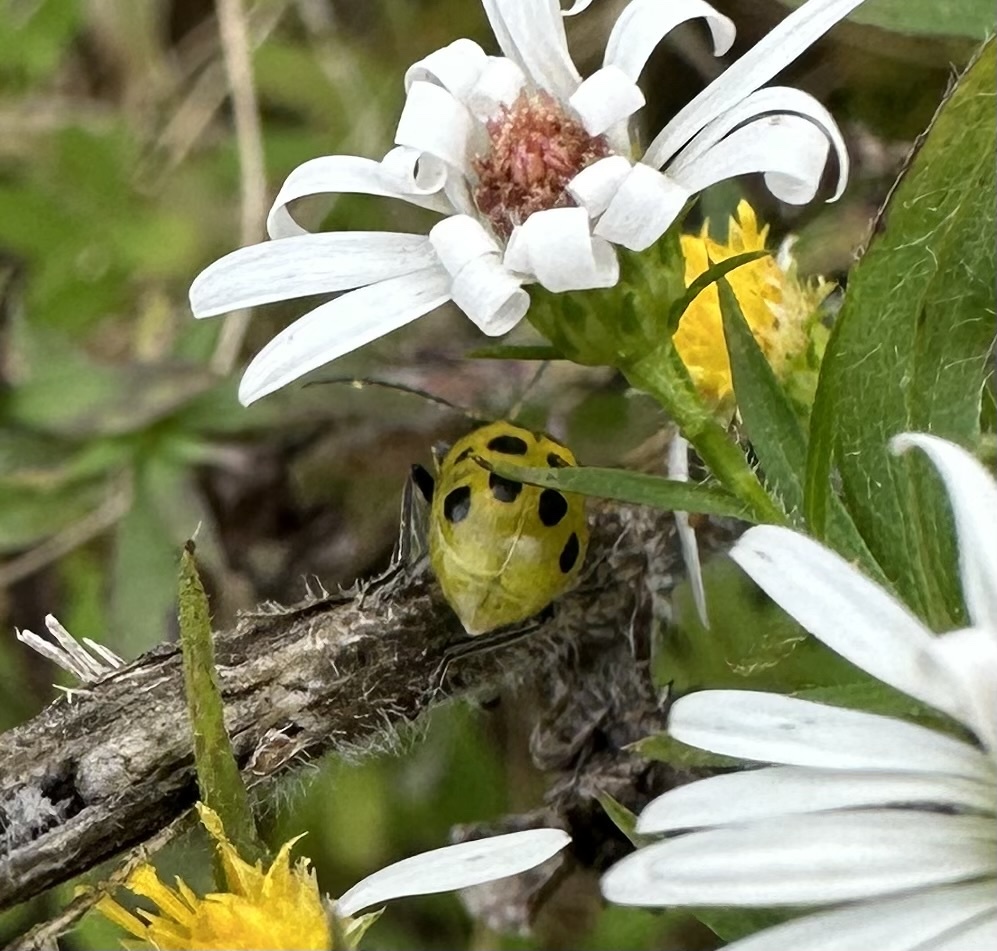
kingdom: Animalia
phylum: Arthropoda
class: Insecta
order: Coleoptera
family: Chrysomelidae
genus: Diabrotica
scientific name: Diabrotica undecimpunctata
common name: Spotted cucumber beetle
